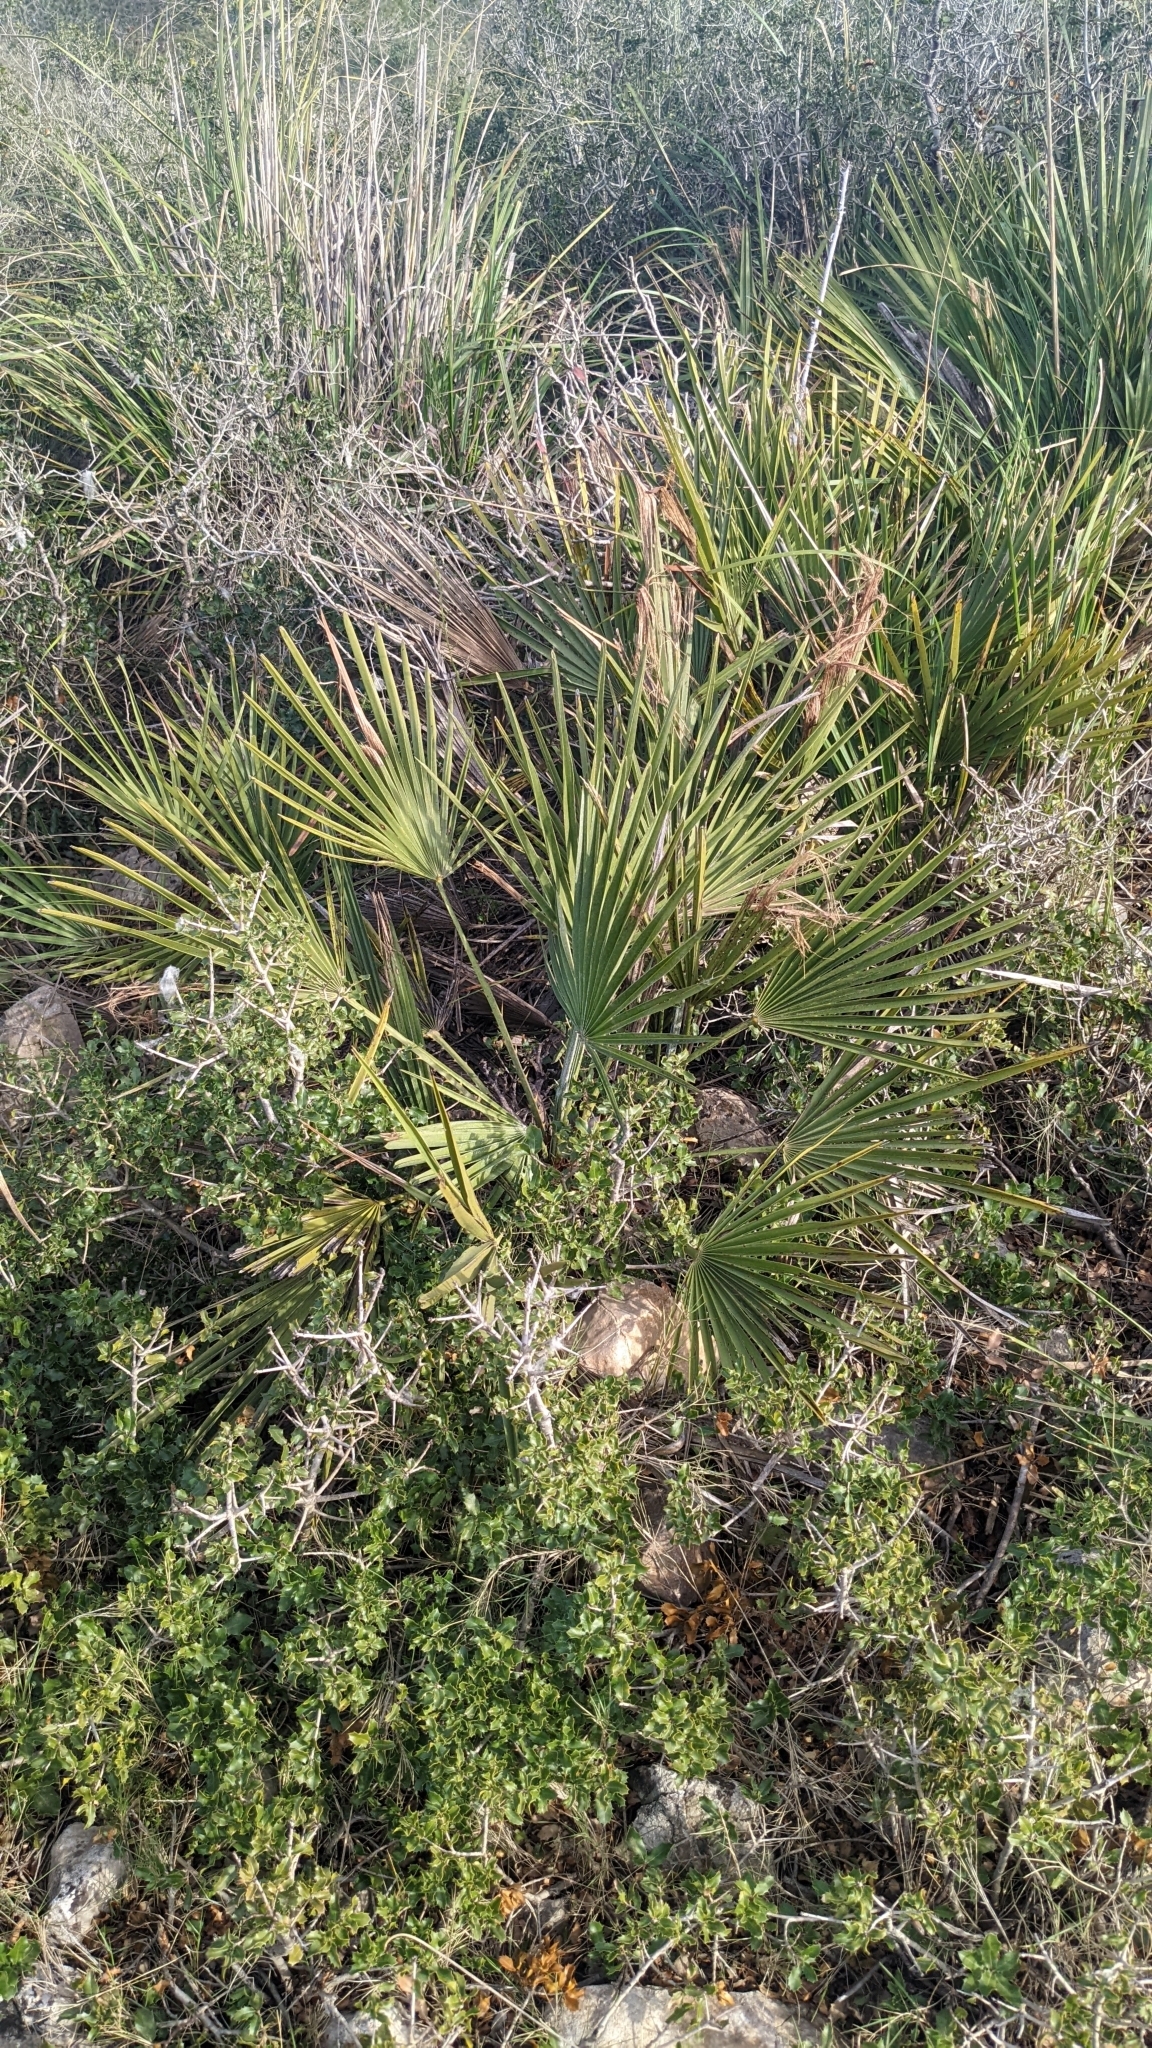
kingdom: Plantae
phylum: Tracheophyta
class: Liliopsida
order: Arecales
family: Arecaceae
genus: Chamaerops
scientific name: Chamaerops humilis
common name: Dwarf fan palm
